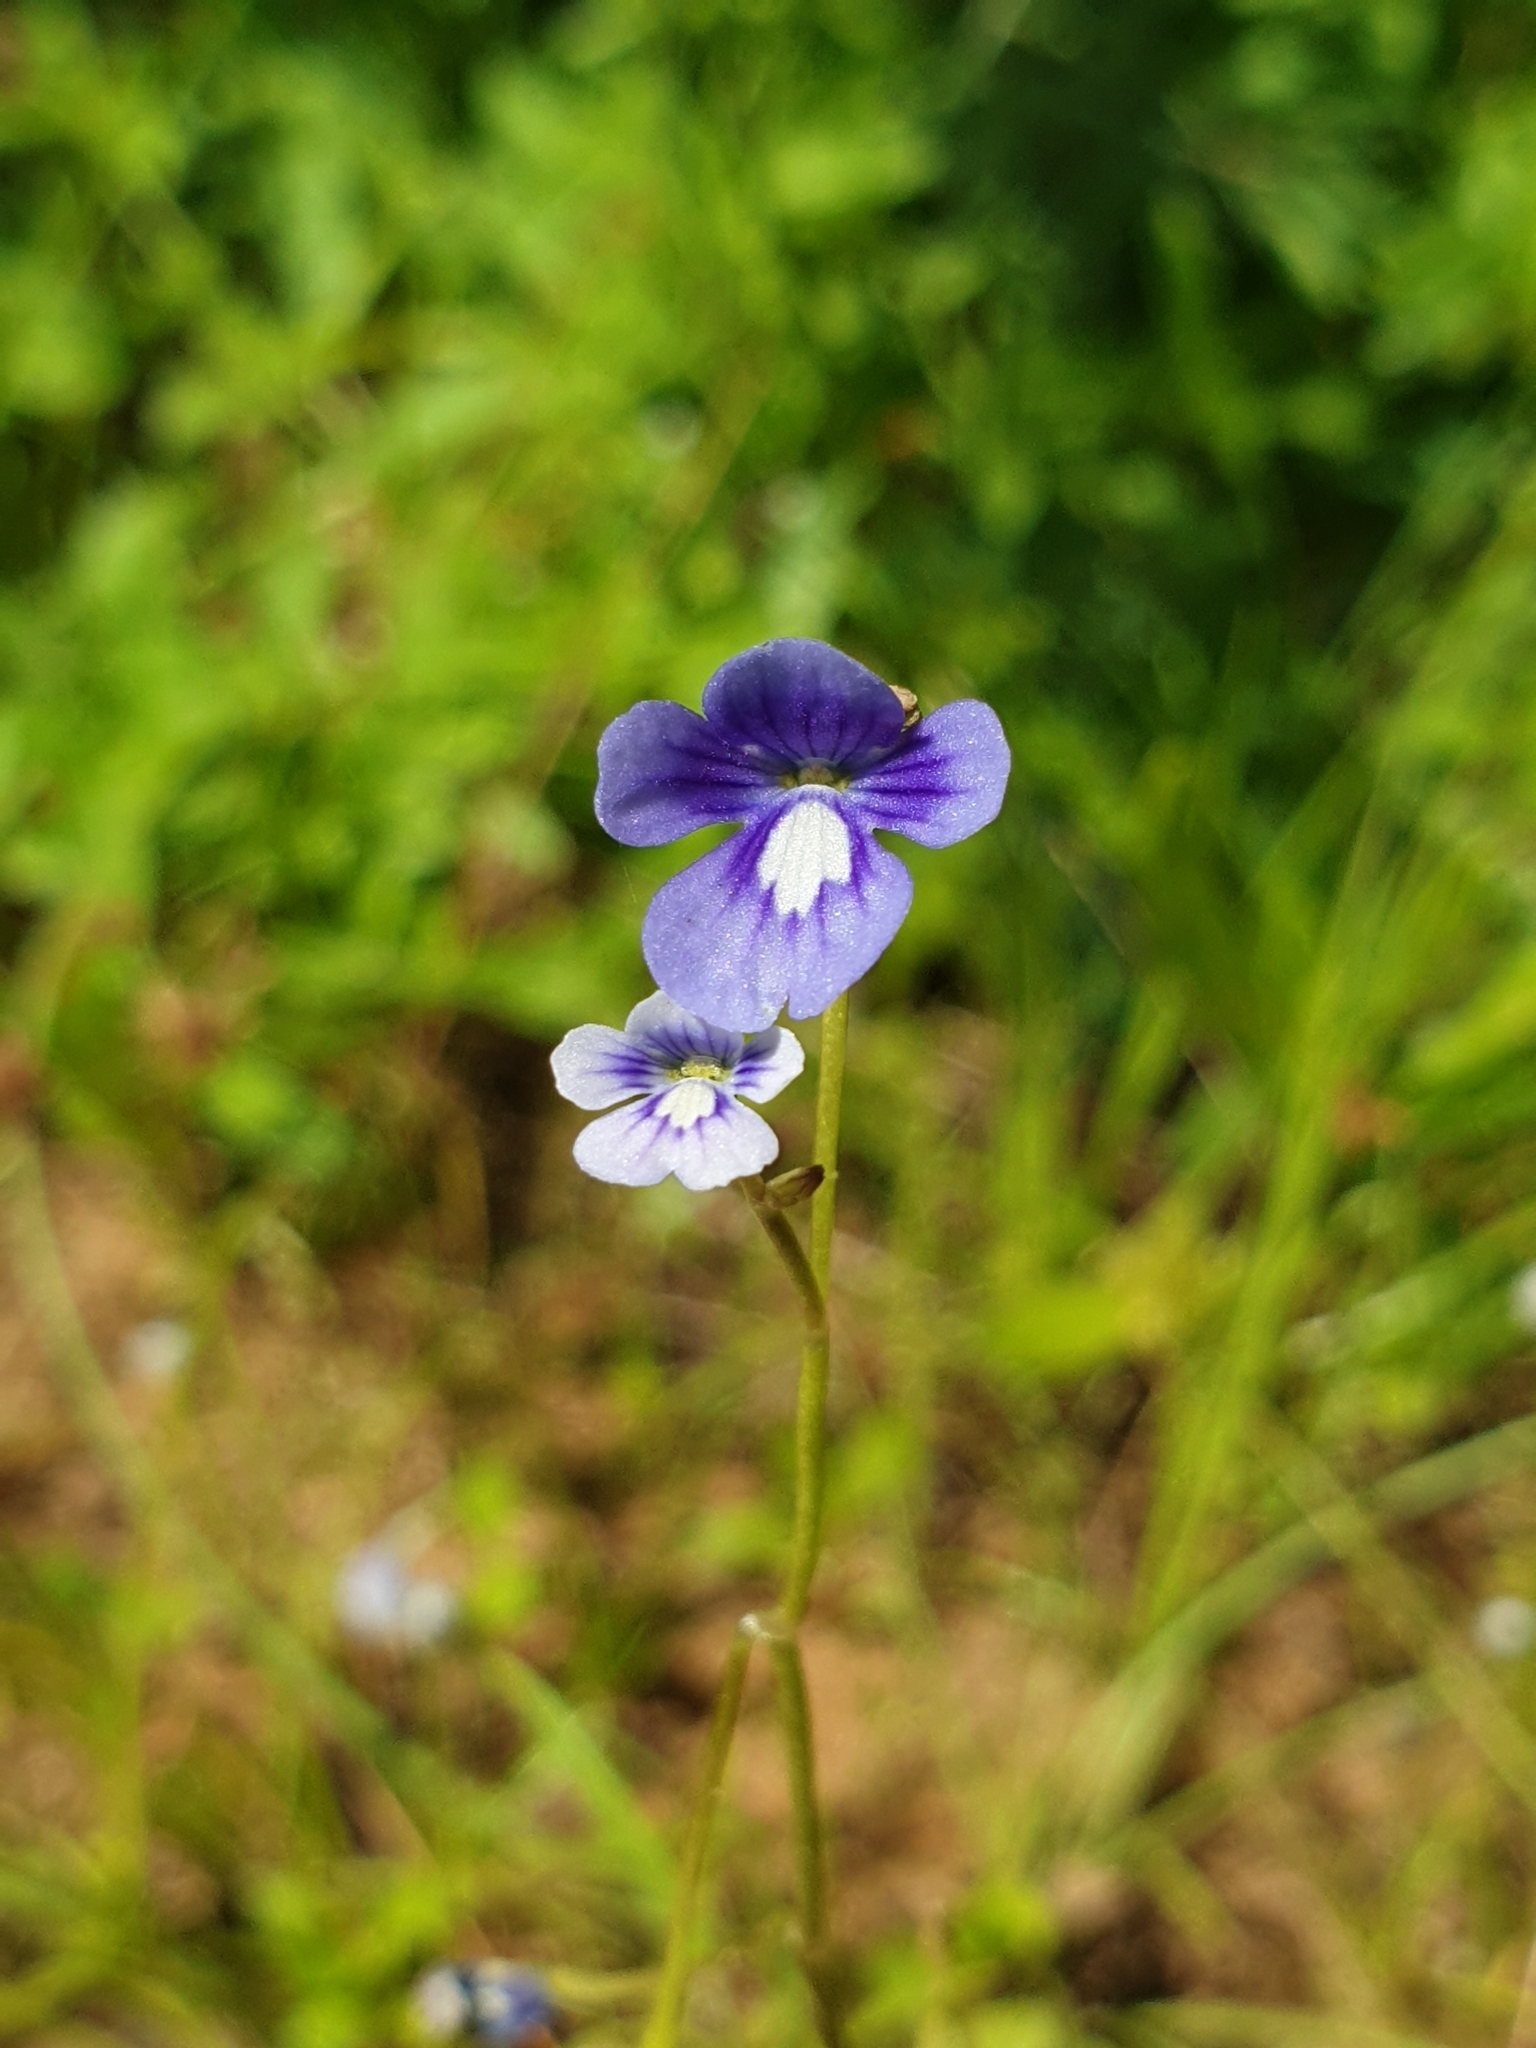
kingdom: Plantae
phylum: Tracheophyta
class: Magnoliopsida
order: Lamiales
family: Plantaginaceae
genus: Dopatrium
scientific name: Dopatrium nudicaule
